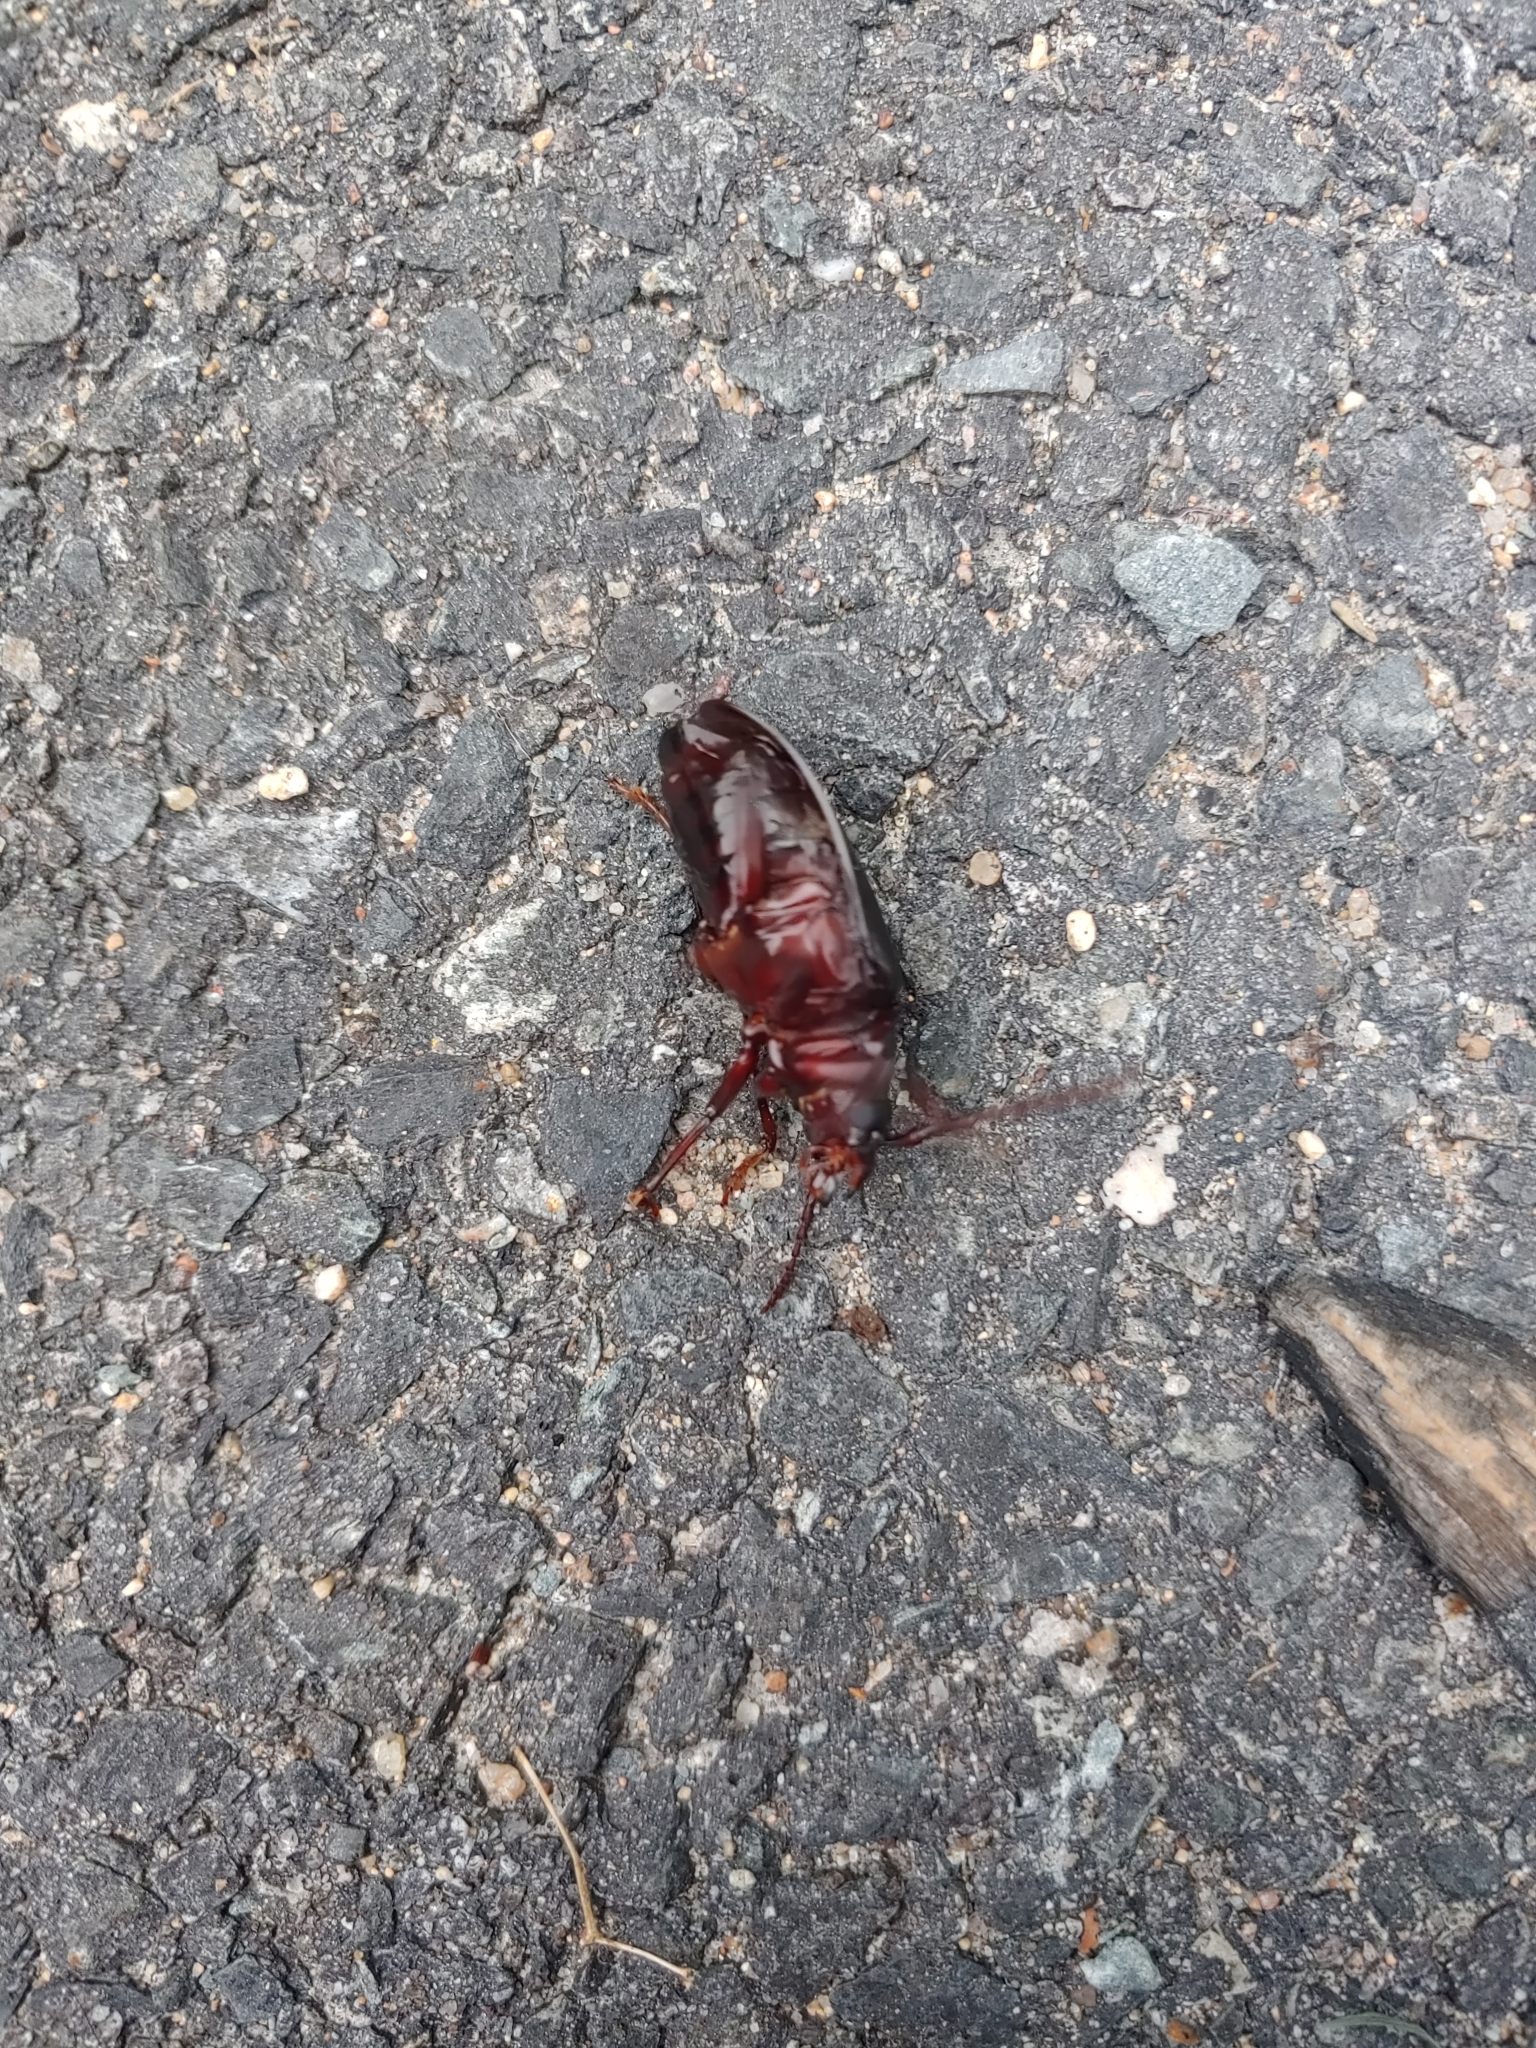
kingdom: Animalia
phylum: Arthropoda
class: Insecta
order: Coleoptera
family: Cerambycidae
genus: Prionus
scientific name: Prionus laticollis
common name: Broad necked prionus
